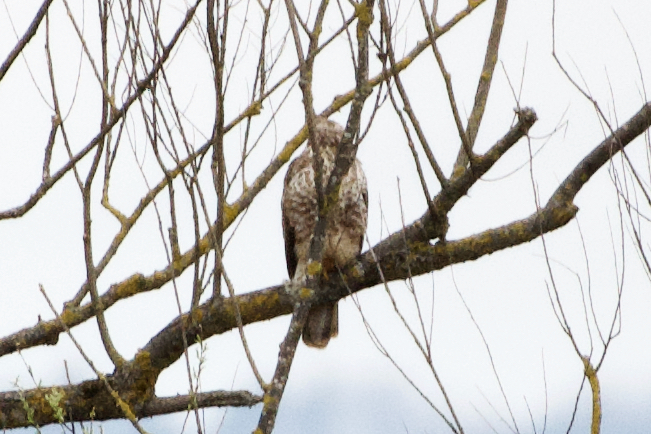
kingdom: Animalia
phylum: Chordata
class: Aves
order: Accipitriformes
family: Accipitridae
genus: Buteo
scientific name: Buteo buteo
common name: Common buzzard
